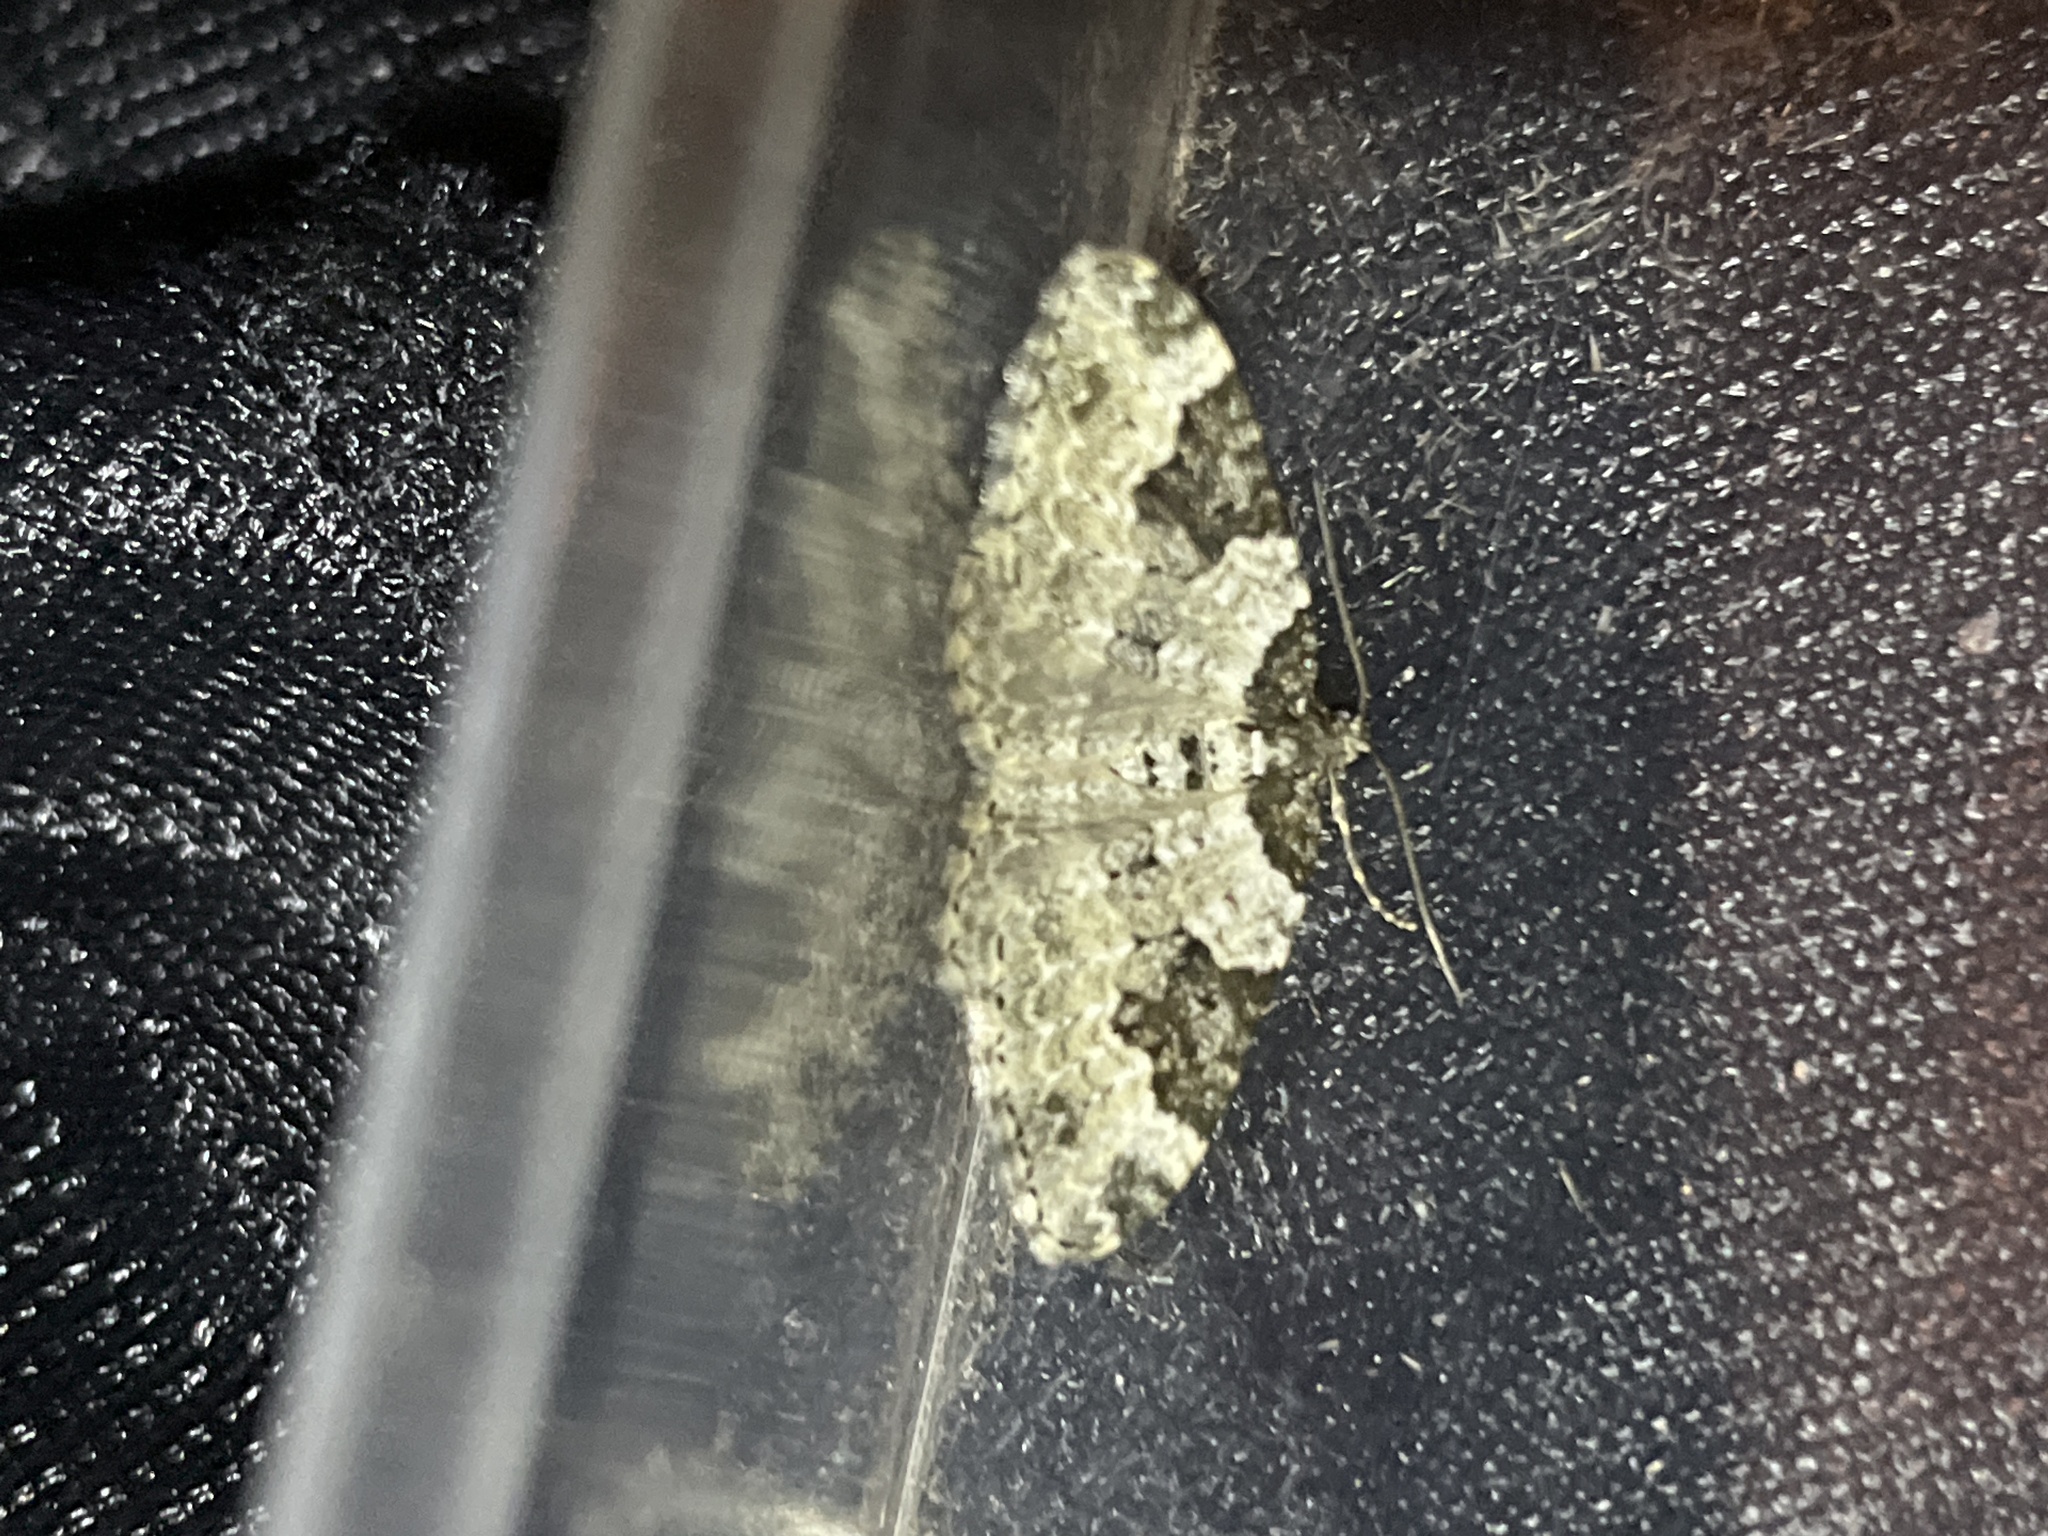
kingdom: Animalia
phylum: Arthropoda
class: Insecta
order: Lepidoptera
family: Geometridae
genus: Xanthorhoe
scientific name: Xanthorhoe fluctuata
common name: Garden carpet
